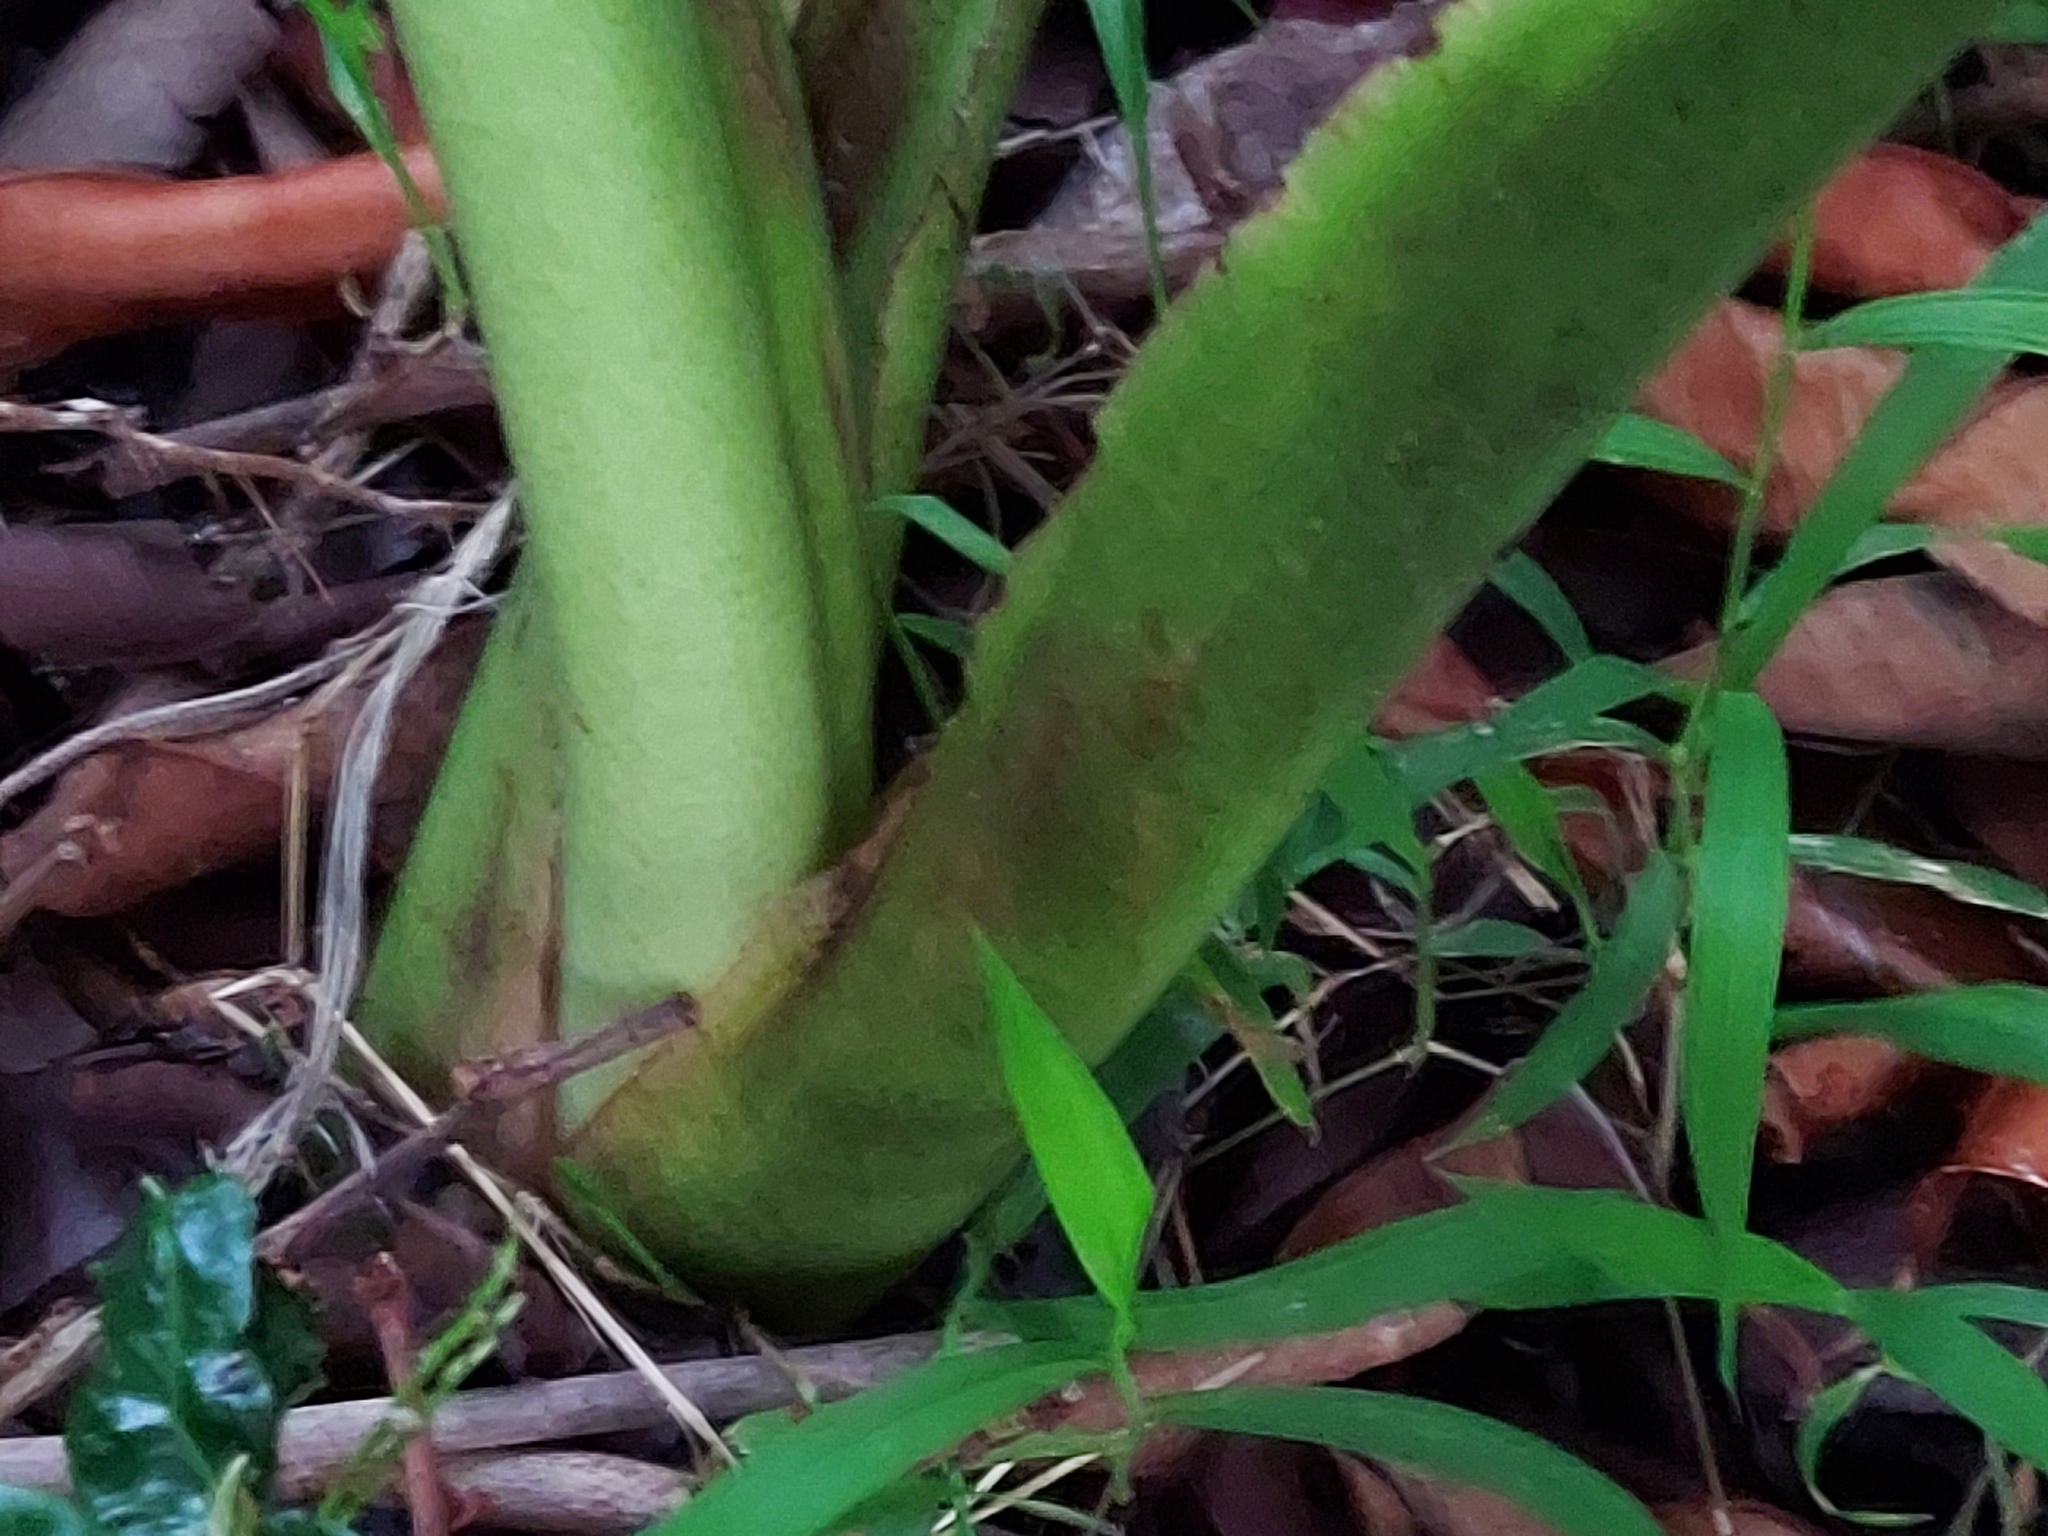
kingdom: Plantae
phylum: Tracheophyta
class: Liliopsida
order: Alismatales
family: Araceae
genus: Xanthosoma
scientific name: Xanthosoma robustum
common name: Capote
